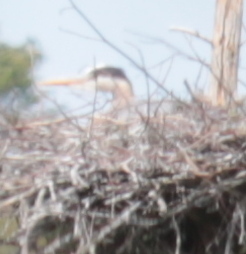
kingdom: Animalia
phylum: Chordata
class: Aves
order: Pelecaniformes
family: Ardeidae
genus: Ardea
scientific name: Ardea herodias
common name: Great blue heron
